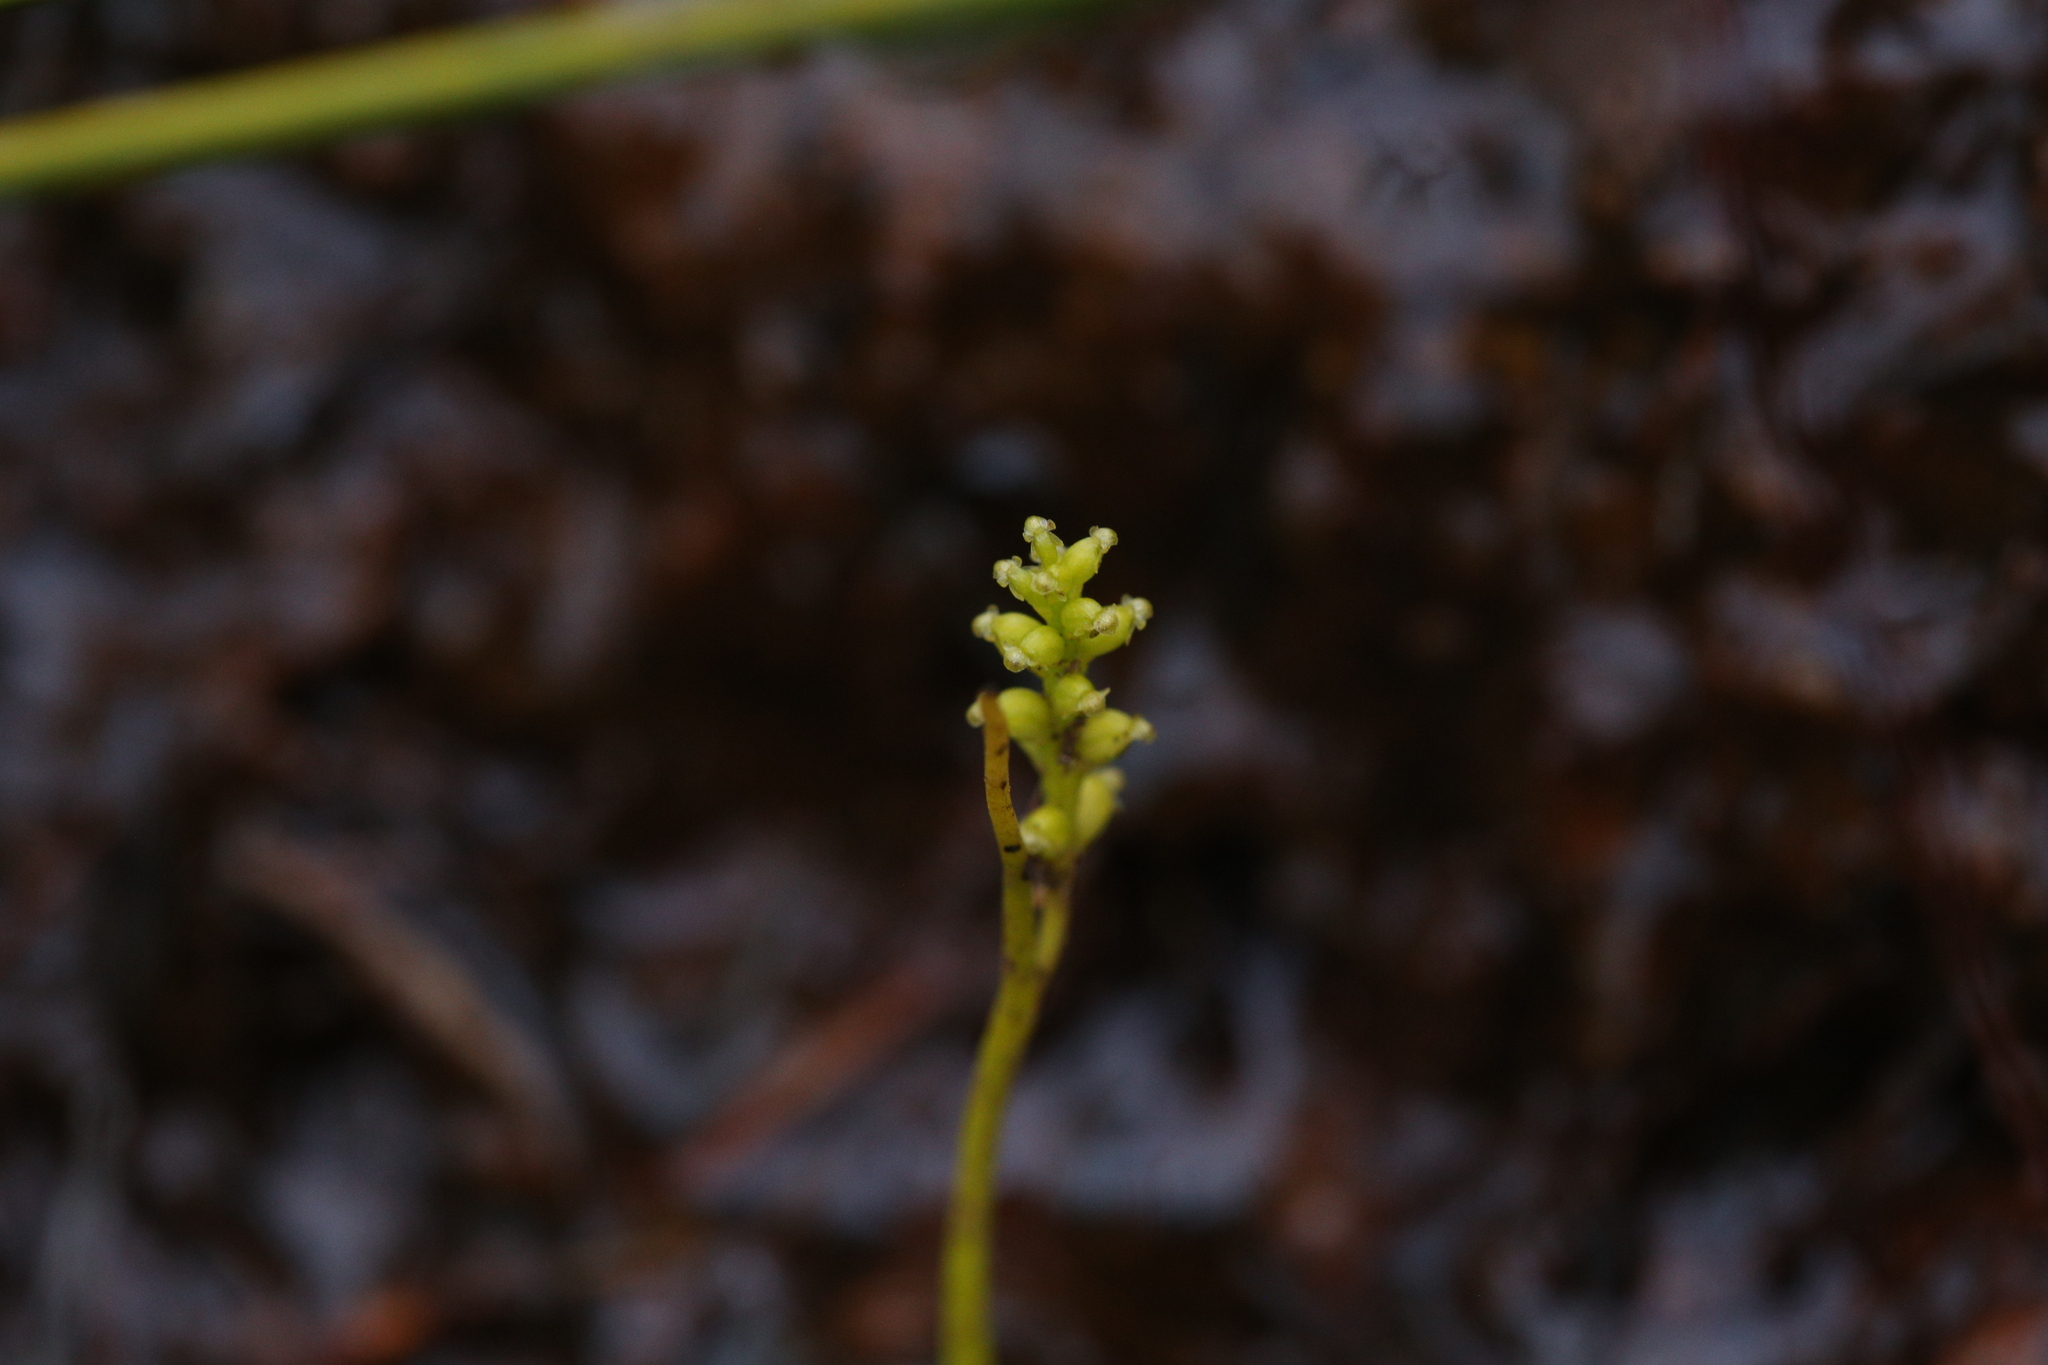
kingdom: Plantae
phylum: Tracheophyta
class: Liliopsida
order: Asparagales
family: Orchidaceae
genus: Microtis
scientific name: Microtis atrata
